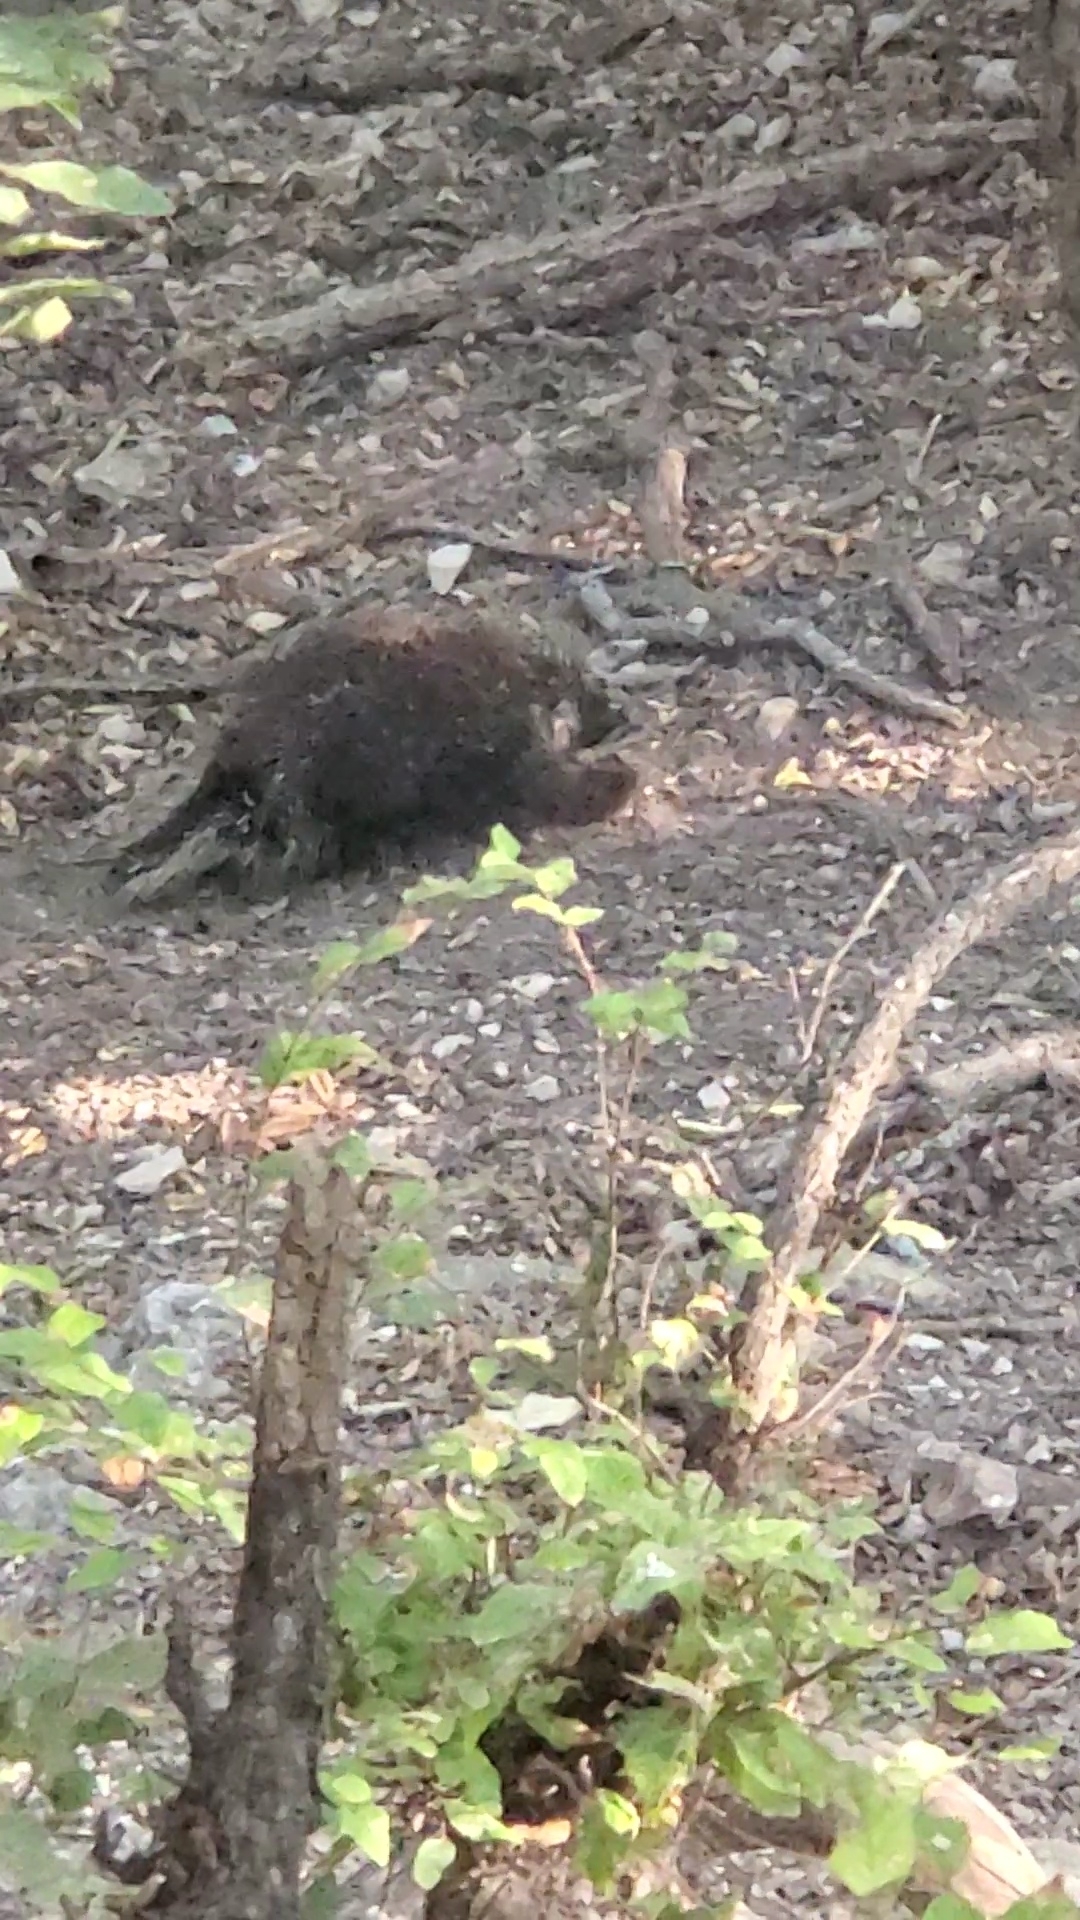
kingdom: Animalia
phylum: Chordata
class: Mammalia
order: Rodentia
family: Erethizontidae
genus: Erethizon
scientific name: Erethizon dorsatus
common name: North american porcupine
